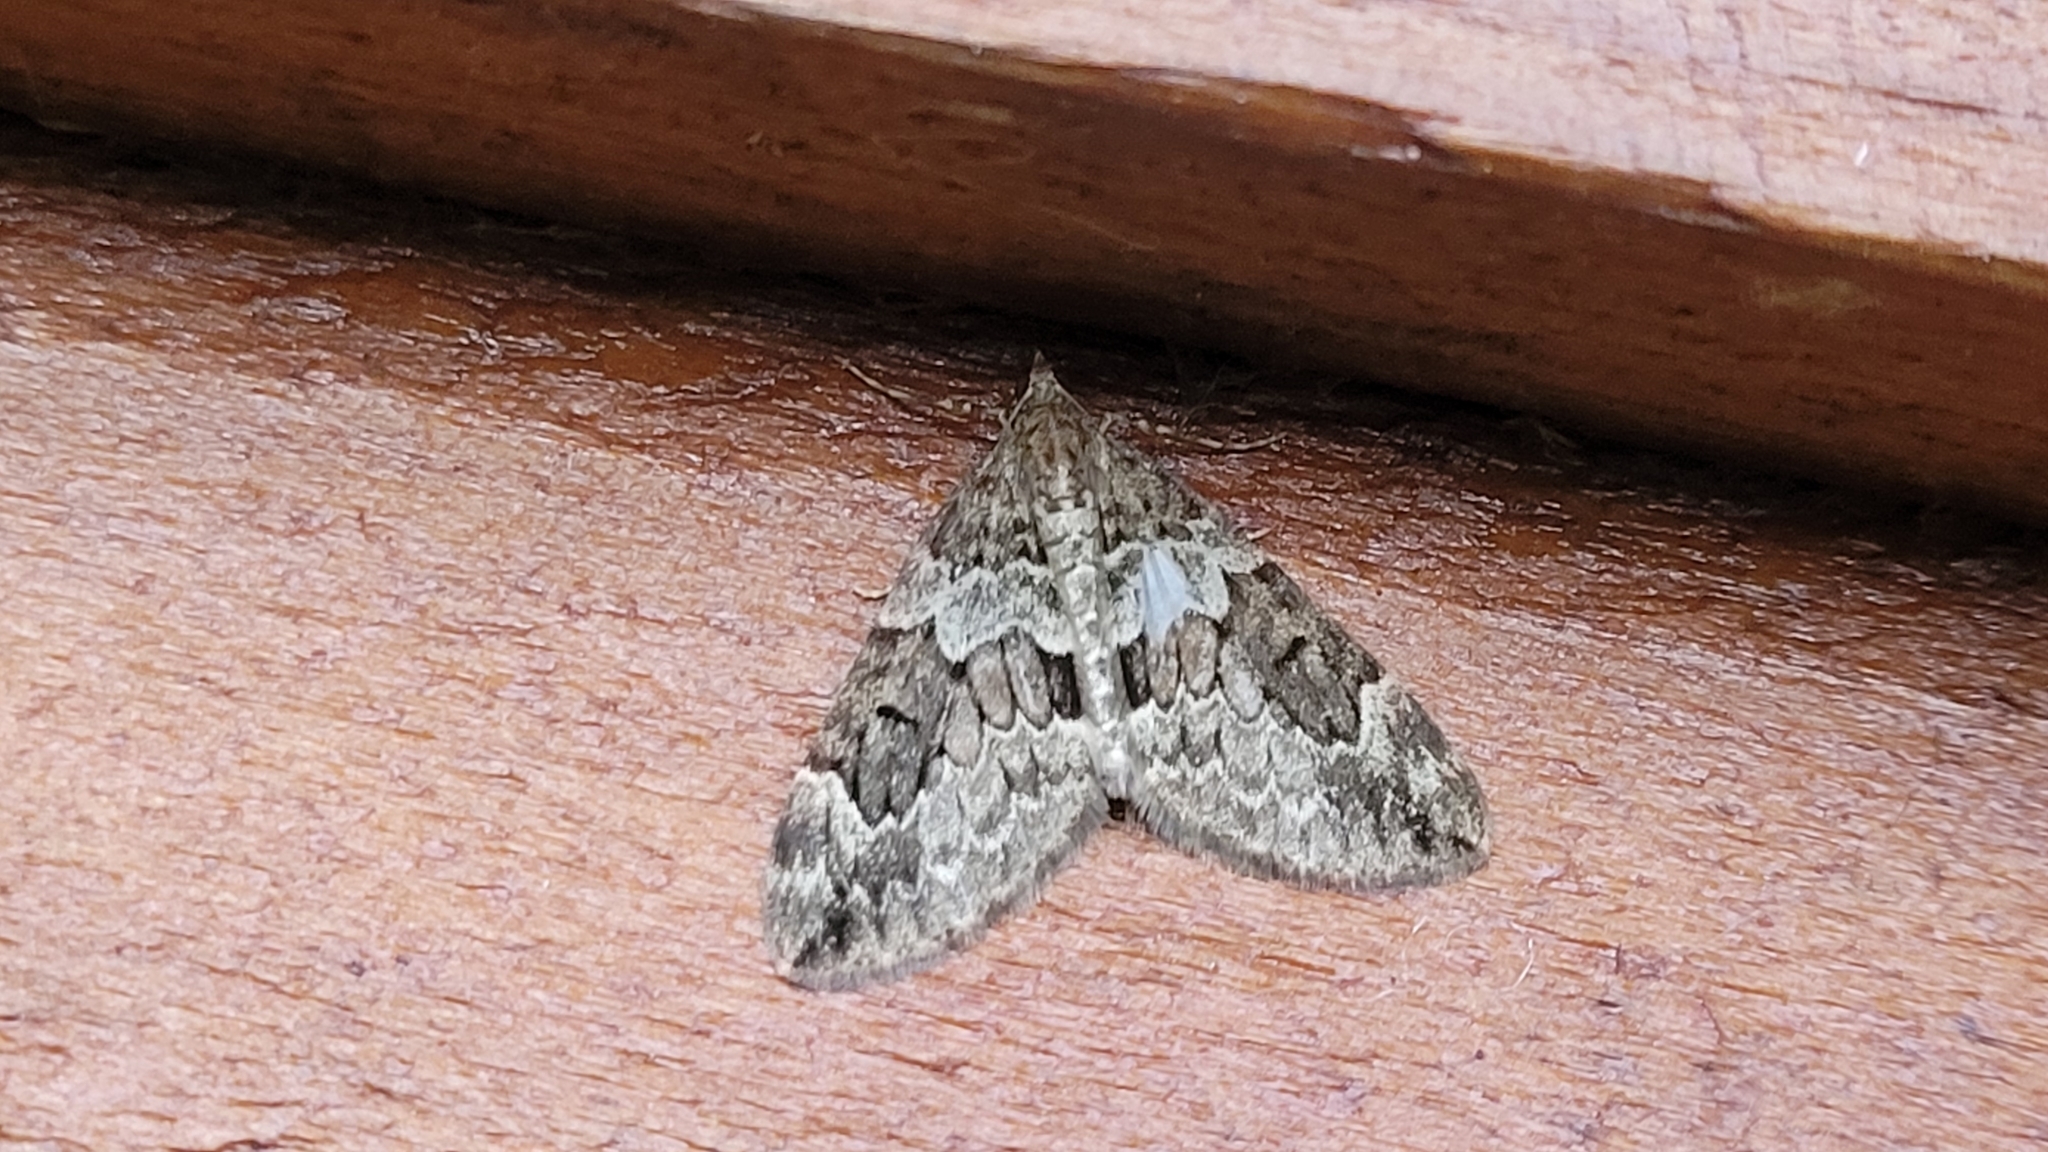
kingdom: Animalia
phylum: Arthropoda
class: Insecta
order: Lepidoptera
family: Geometridae
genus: Thera
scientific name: Thera britannica
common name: Spruce carpet
